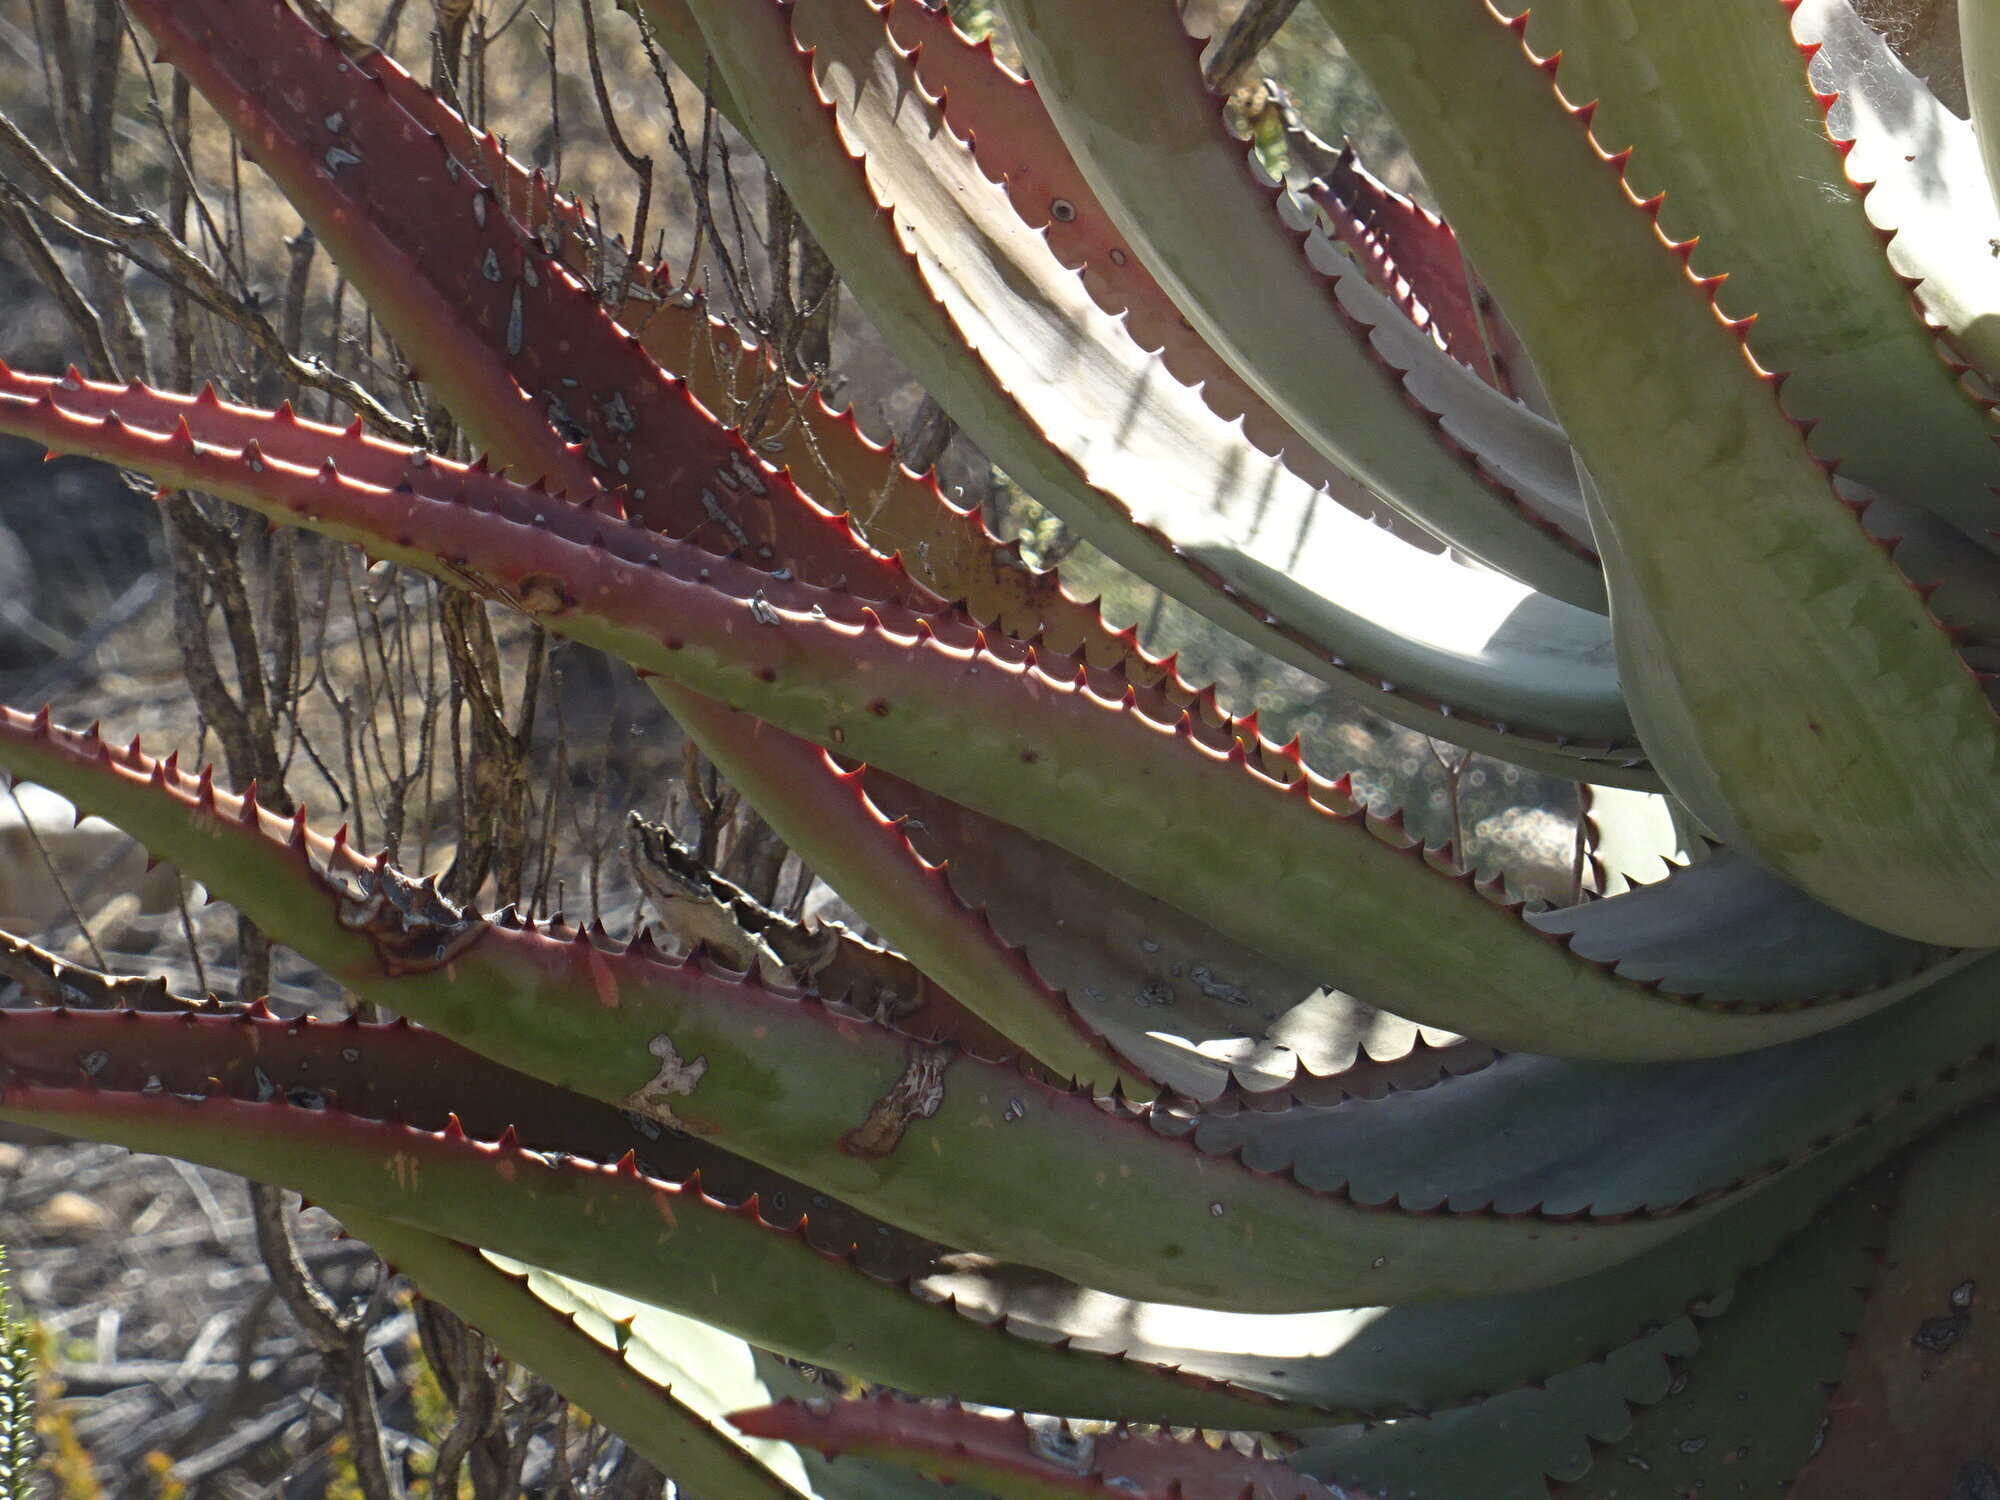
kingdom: Plantae
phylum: Tracheophyta
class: Liliopsida
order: Asparagales
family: Asphodelaceae
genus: Aloe
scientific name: Aloe ferox
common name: Bitter aloe
